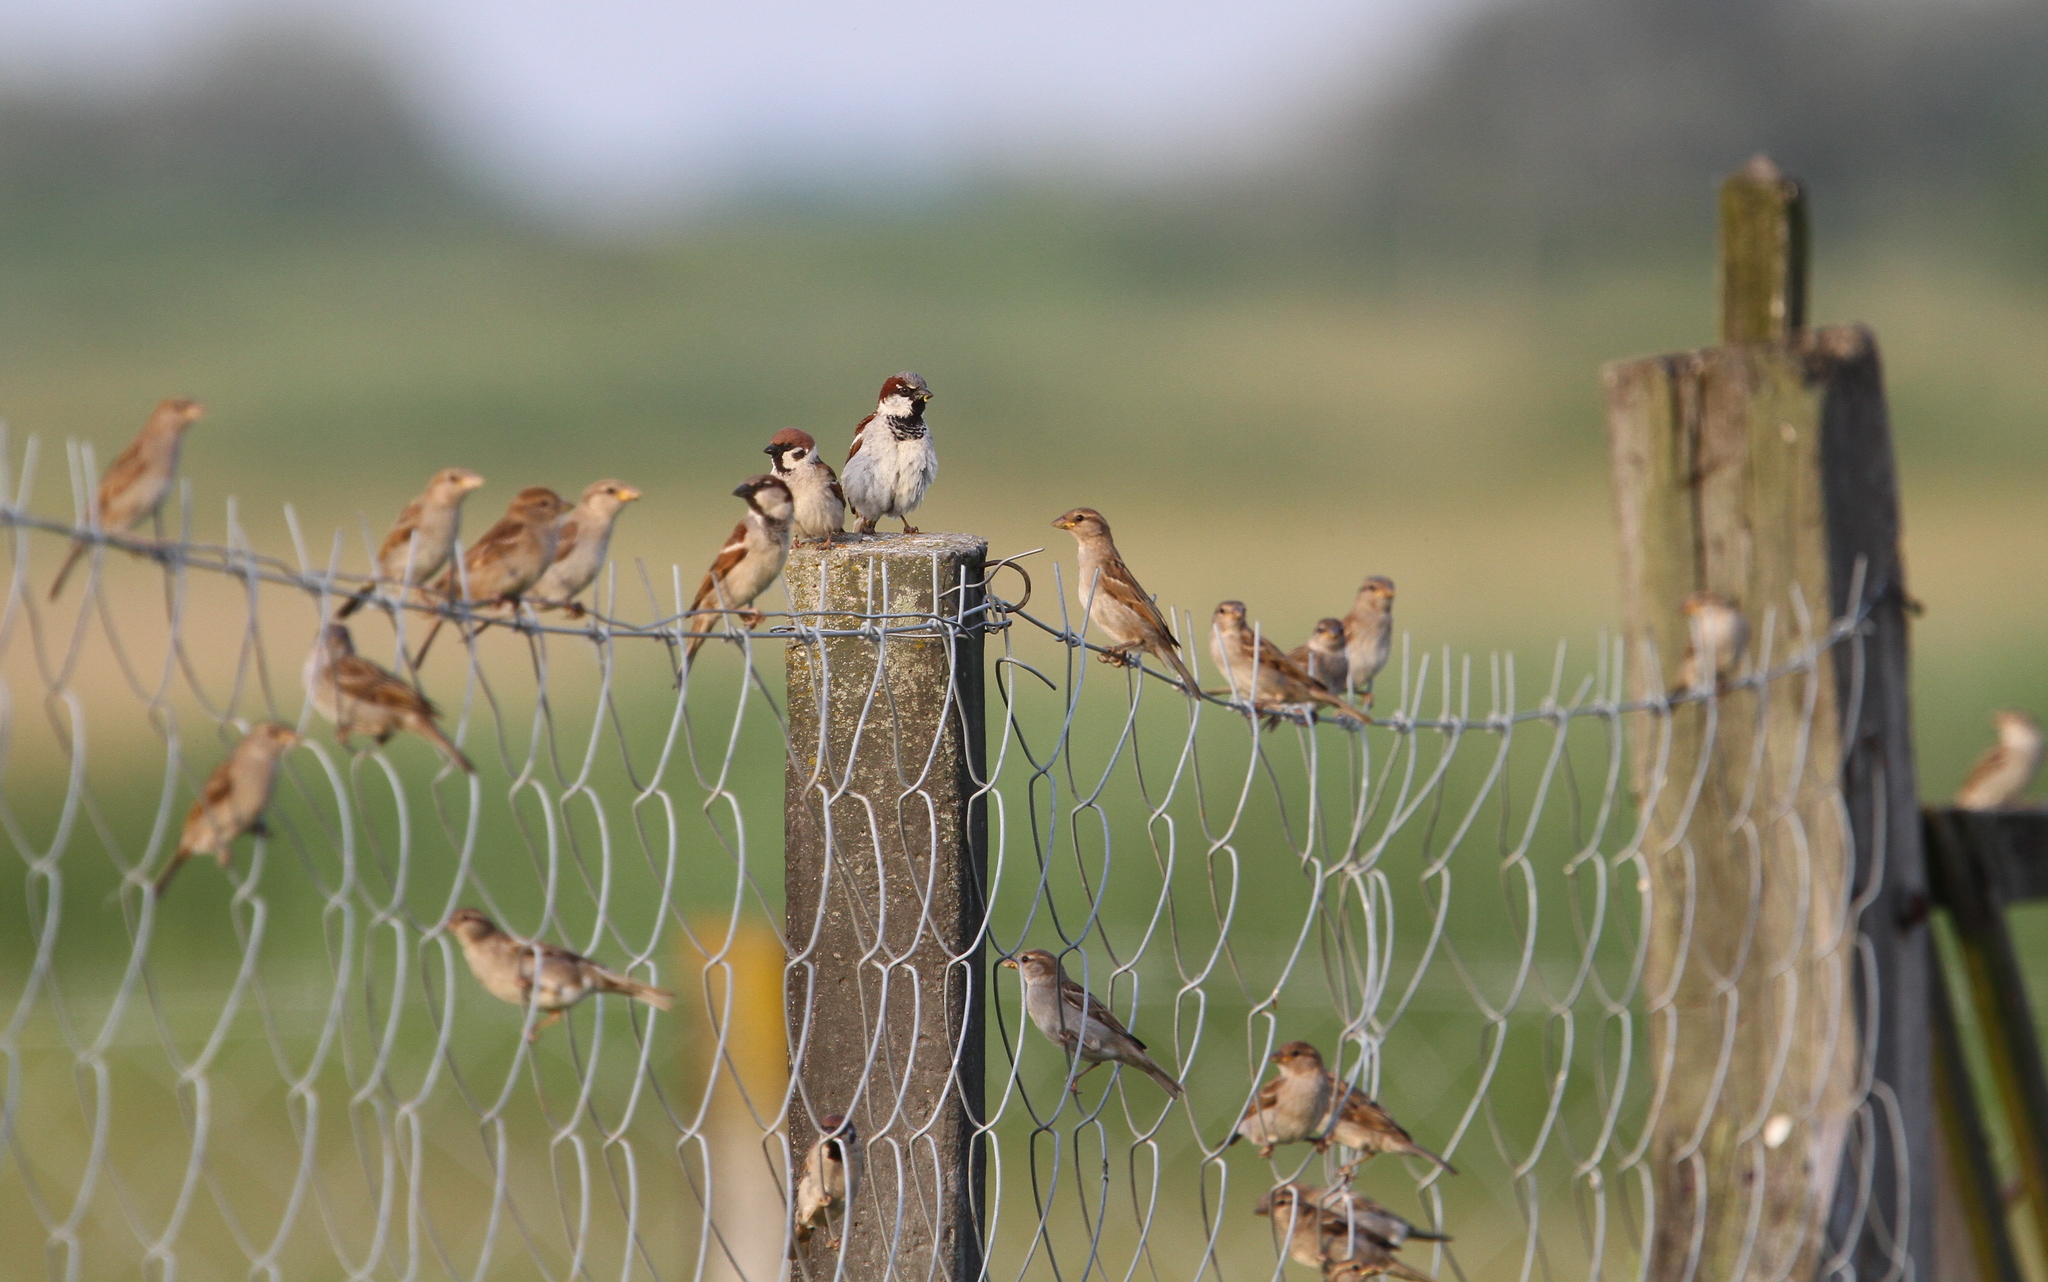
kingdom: Animalia
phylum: Chordata
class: Aves
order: Passeriformes
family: Passeridae
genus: Passer
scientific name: Passer domesticus
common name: House sparrow
